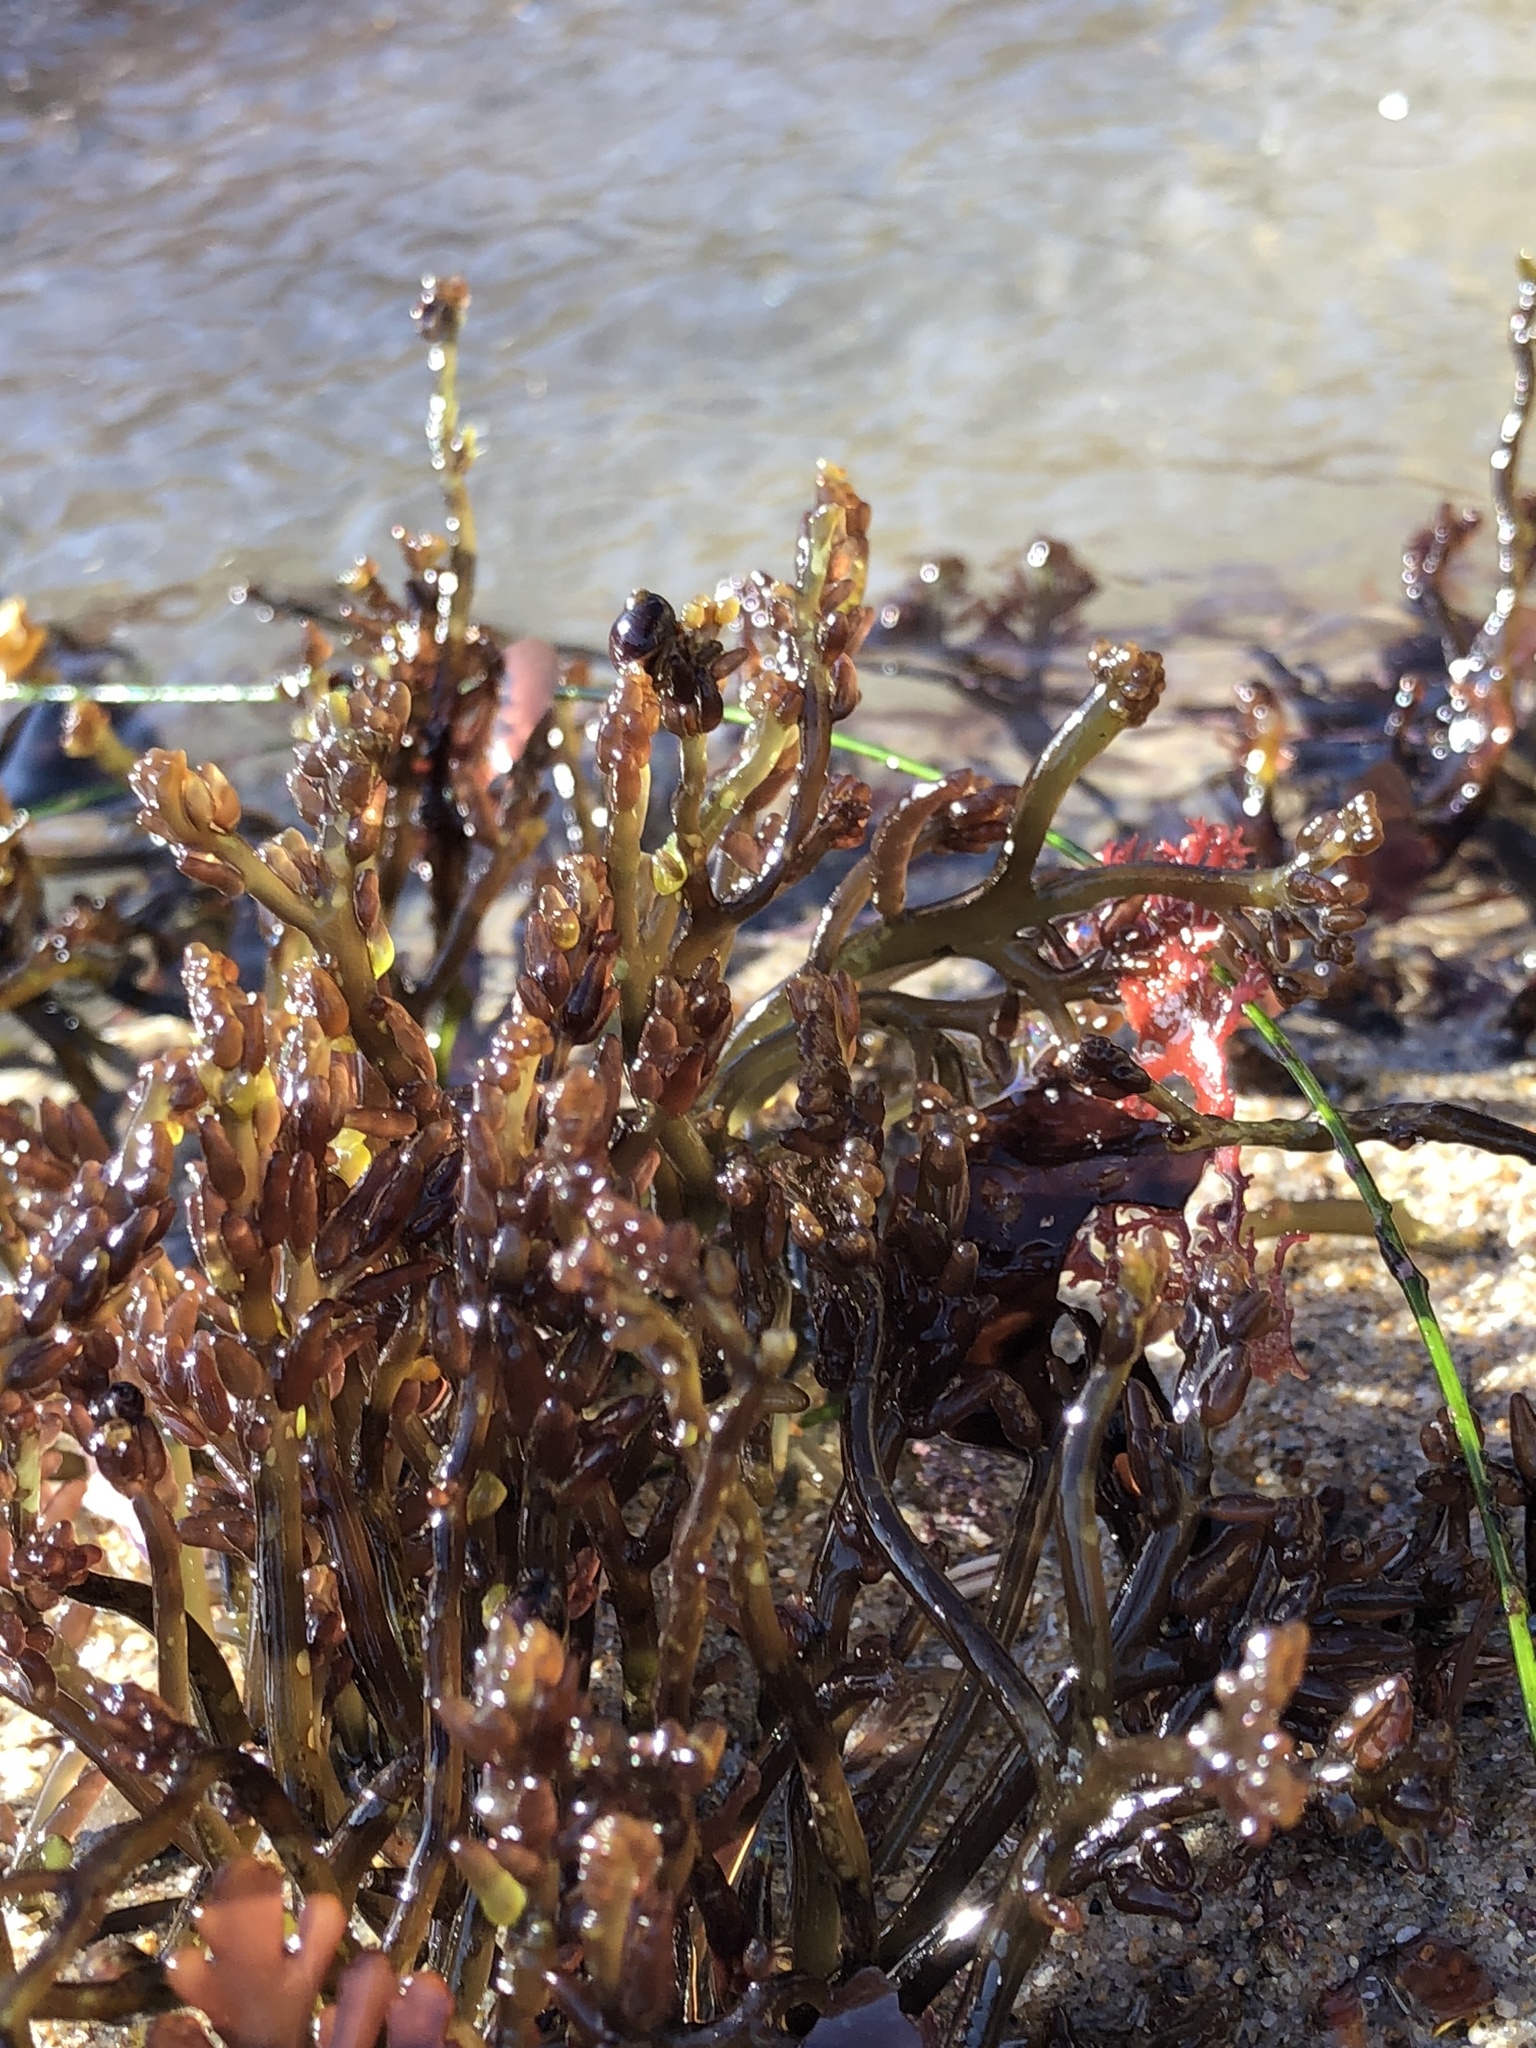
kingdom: Plantae
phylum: Rhodophyta
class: Florideophyceae
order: Rhodymeniales
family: Champiaceae
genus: Neogastroclonium
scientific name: Neogastroclonium subarticulatum
